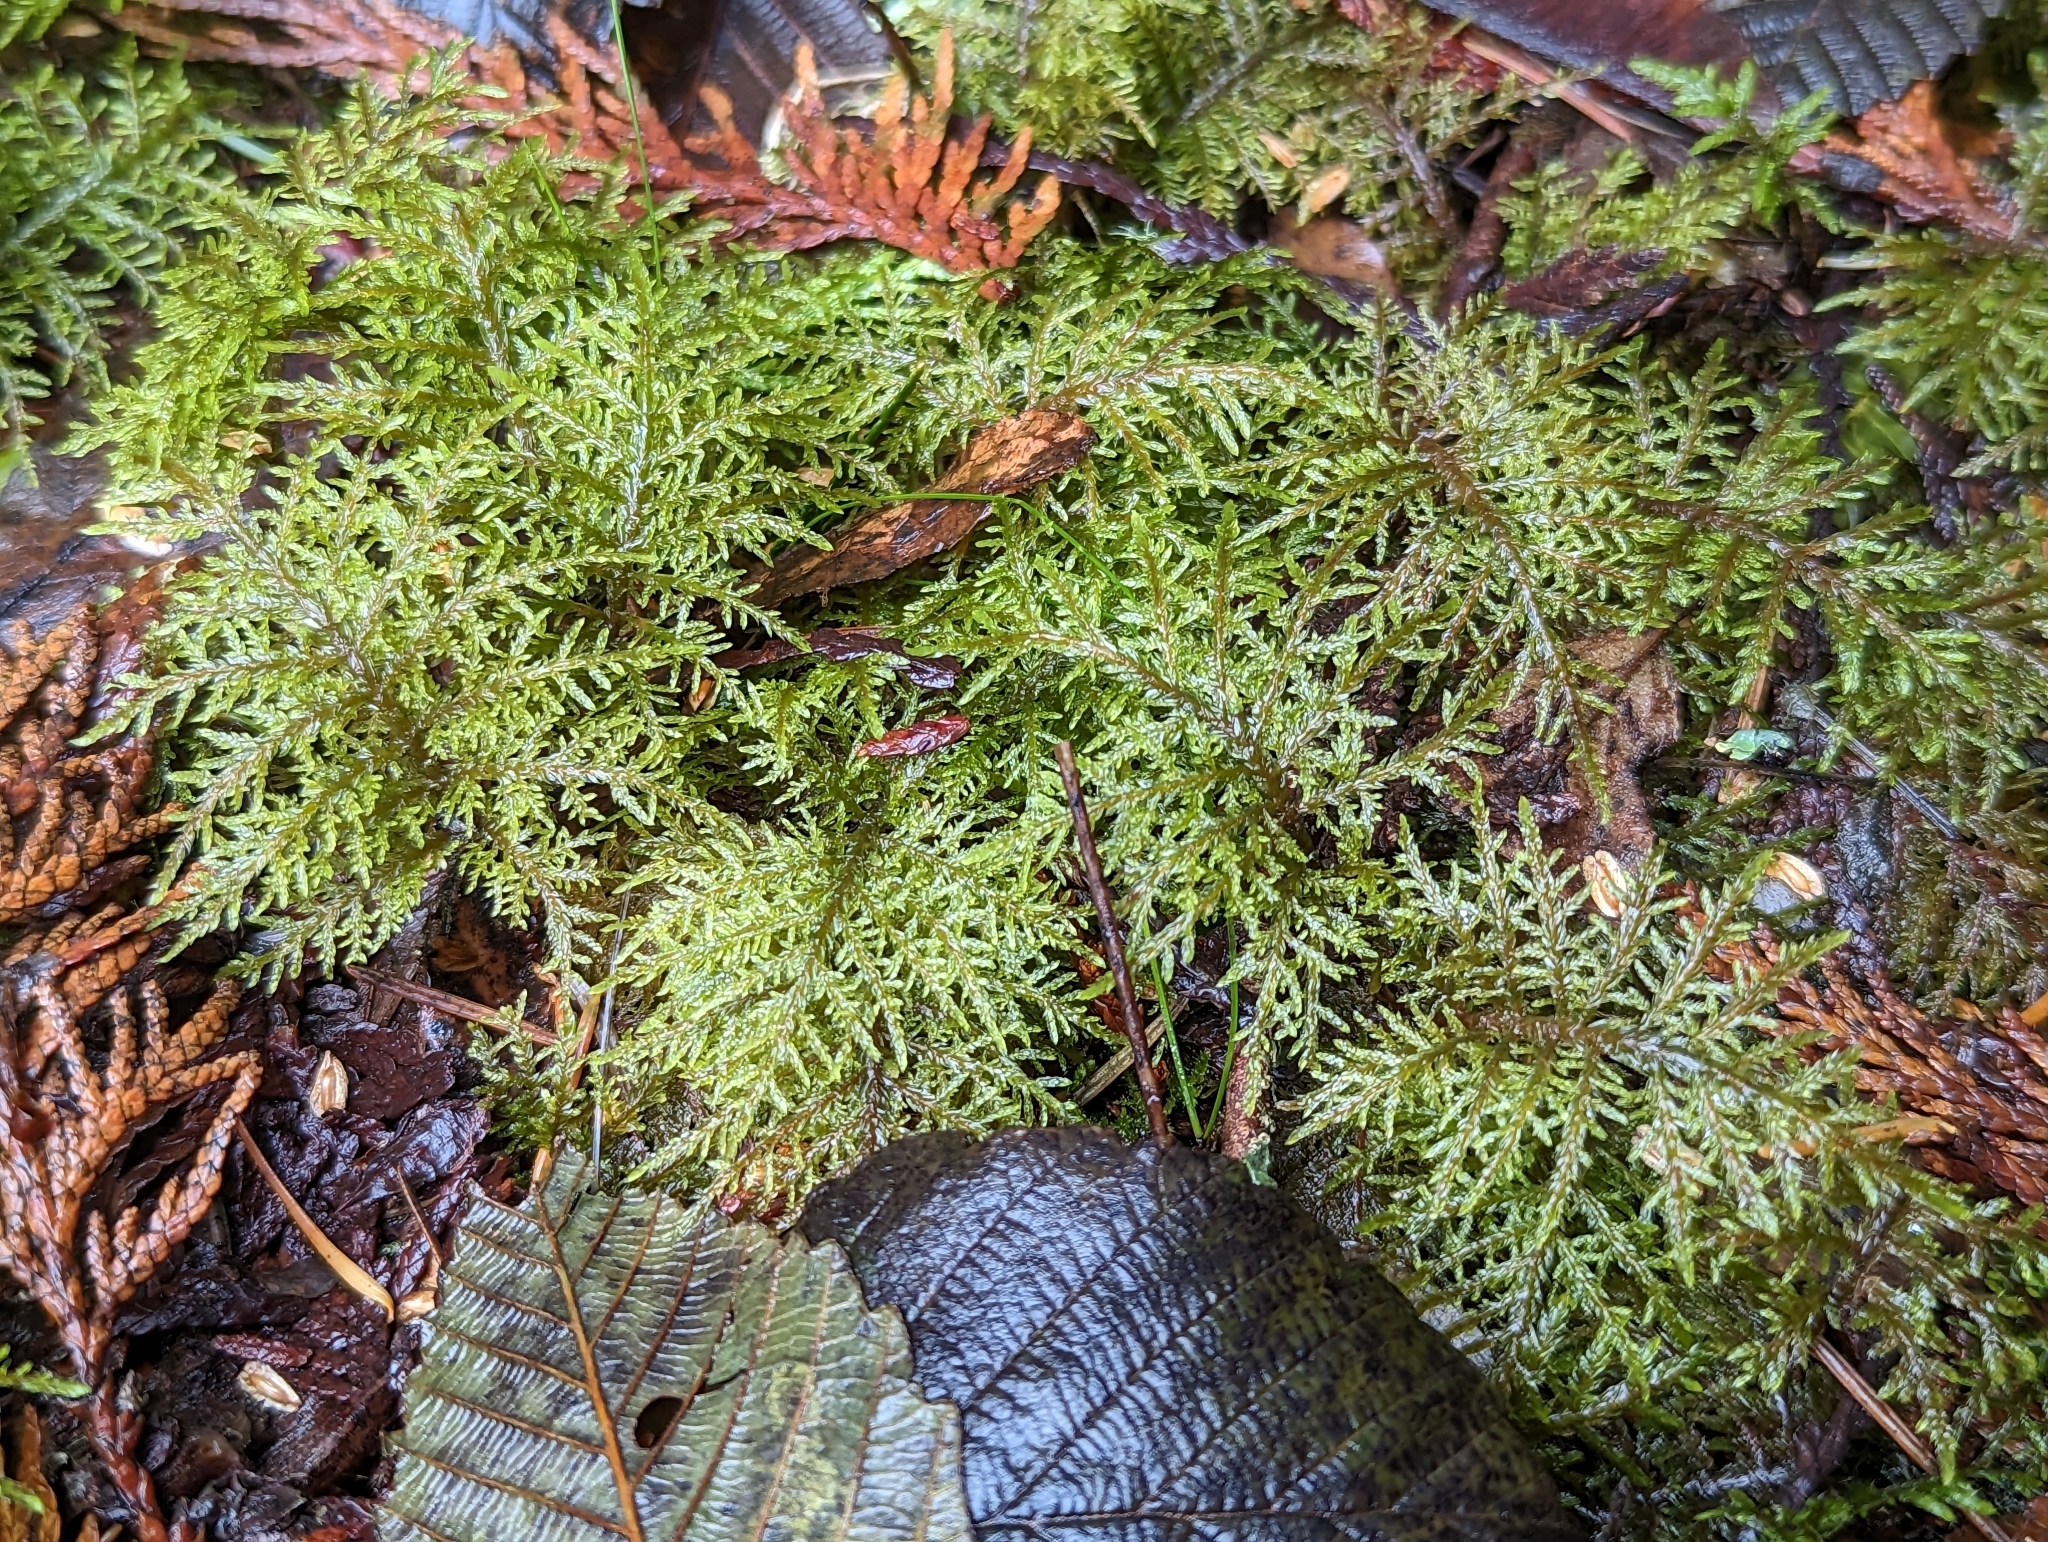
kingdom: Plantae
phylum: Bryophyta
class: Bryopsida
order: Hypnales
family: Hylocomiaceae
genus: Hylocomium
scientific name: Hylocomium splendens
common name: Stairstep moss
